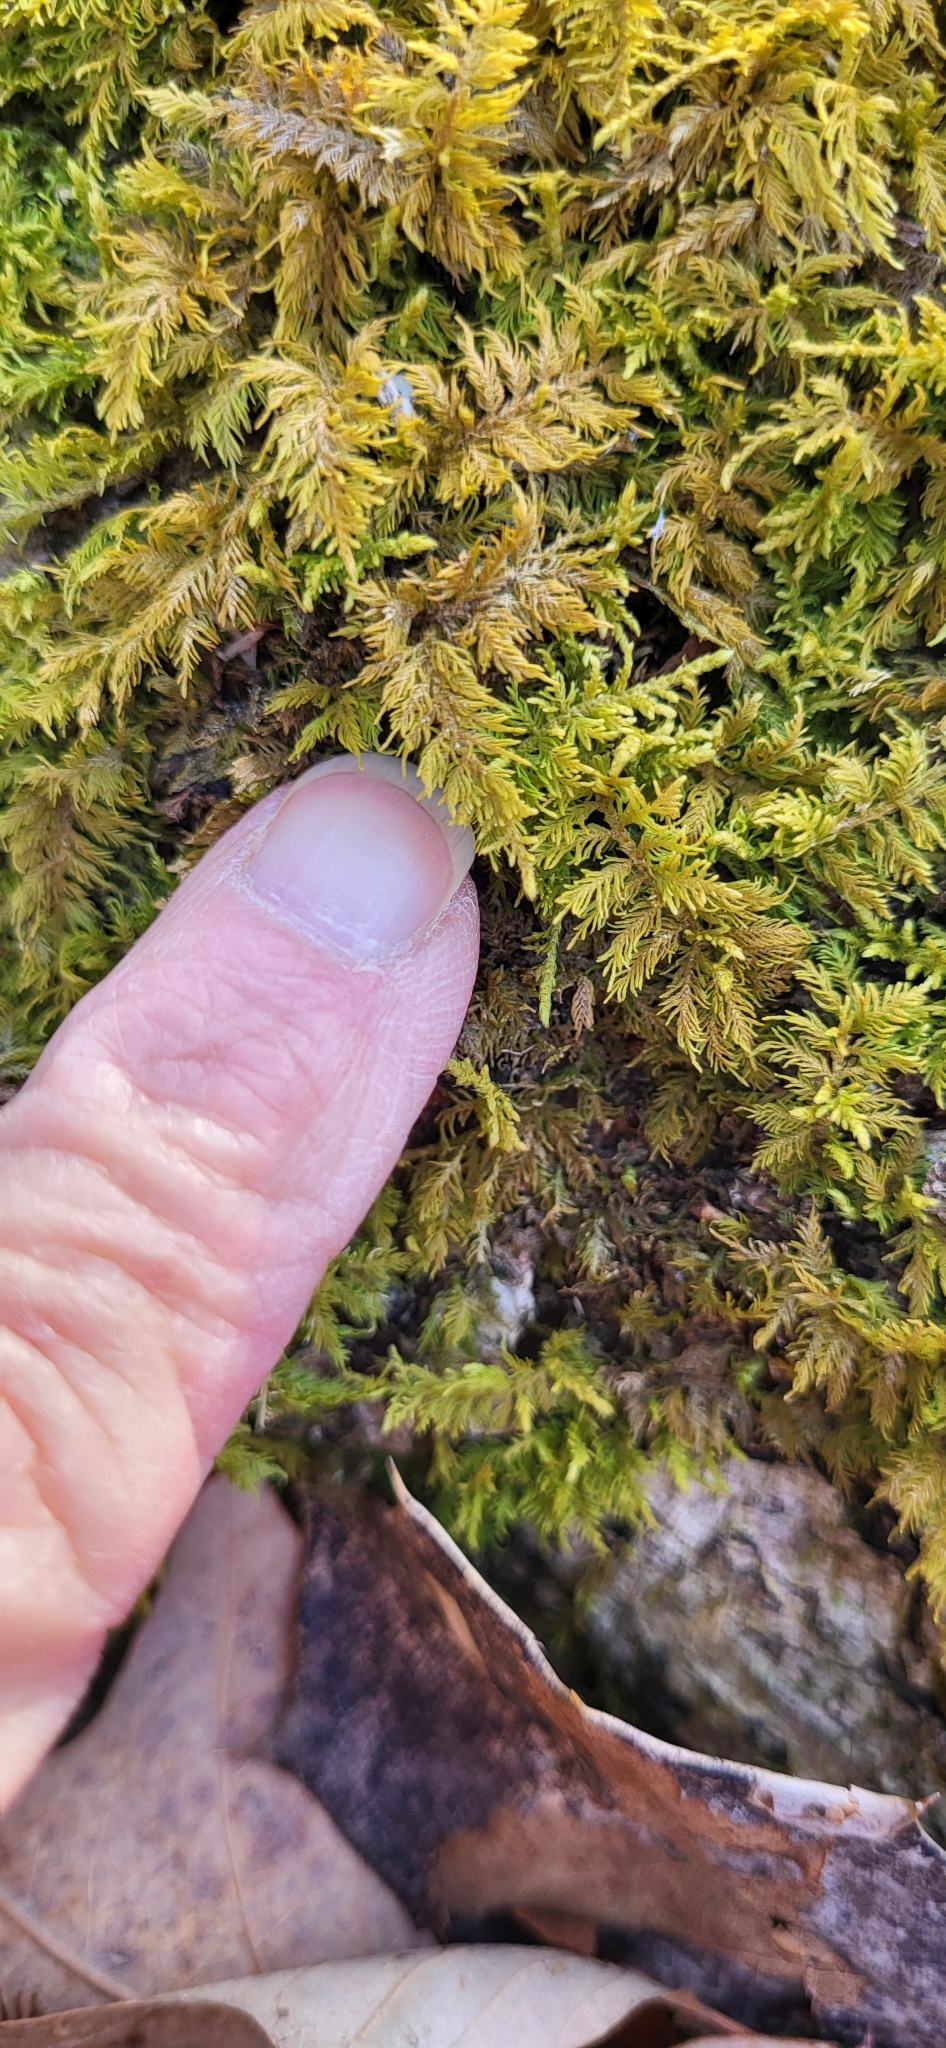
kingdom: Plantae
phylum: Bryophyta
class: Bryopsida
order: Hypnales
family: Thuidiaceae
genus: Thuidium
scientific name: Thuidium delicatulum
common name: Delicate fern moss
